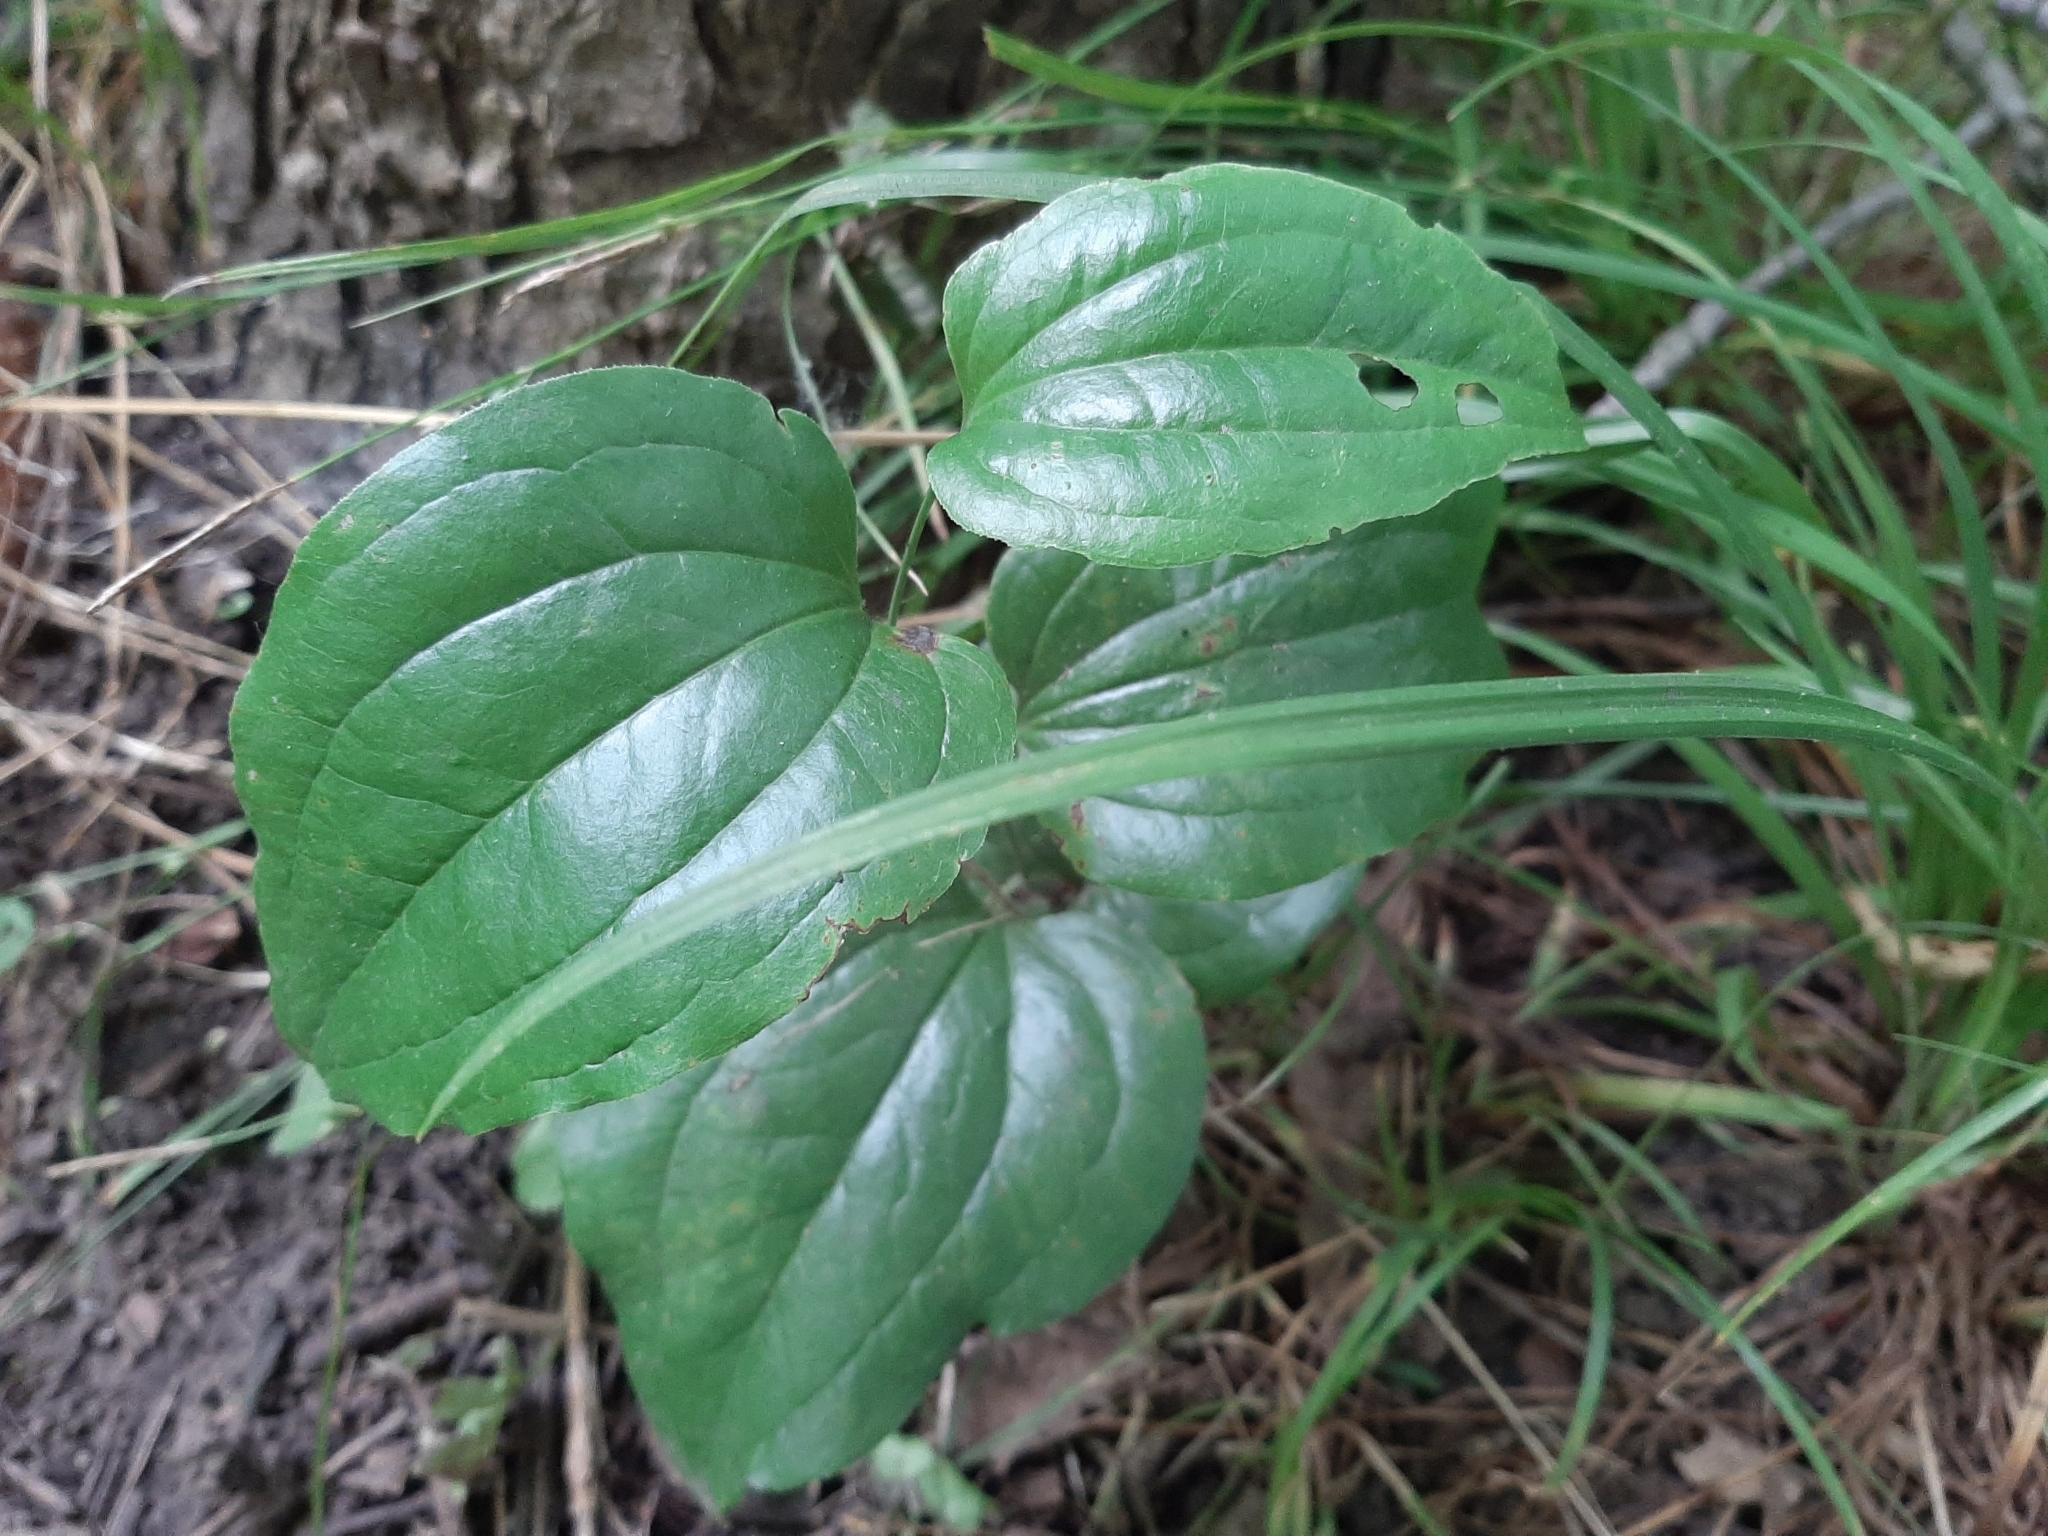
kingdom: Plantae
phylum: Tracheophyta
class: Liliopsida
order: Liliales
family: Smilacaceae
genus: Smilax
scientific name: Smilax tamnoides
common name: Hellfetter
